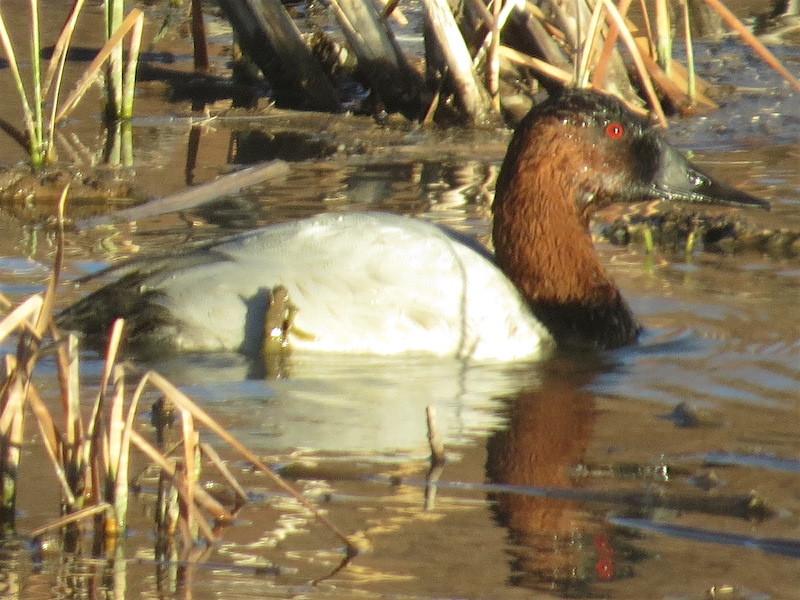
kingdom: Animalia
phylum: Chordata
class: Aves
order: Anseriformes
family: Anatidae
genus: Aythya
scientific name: Aythya valisineria
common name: Canvasback
